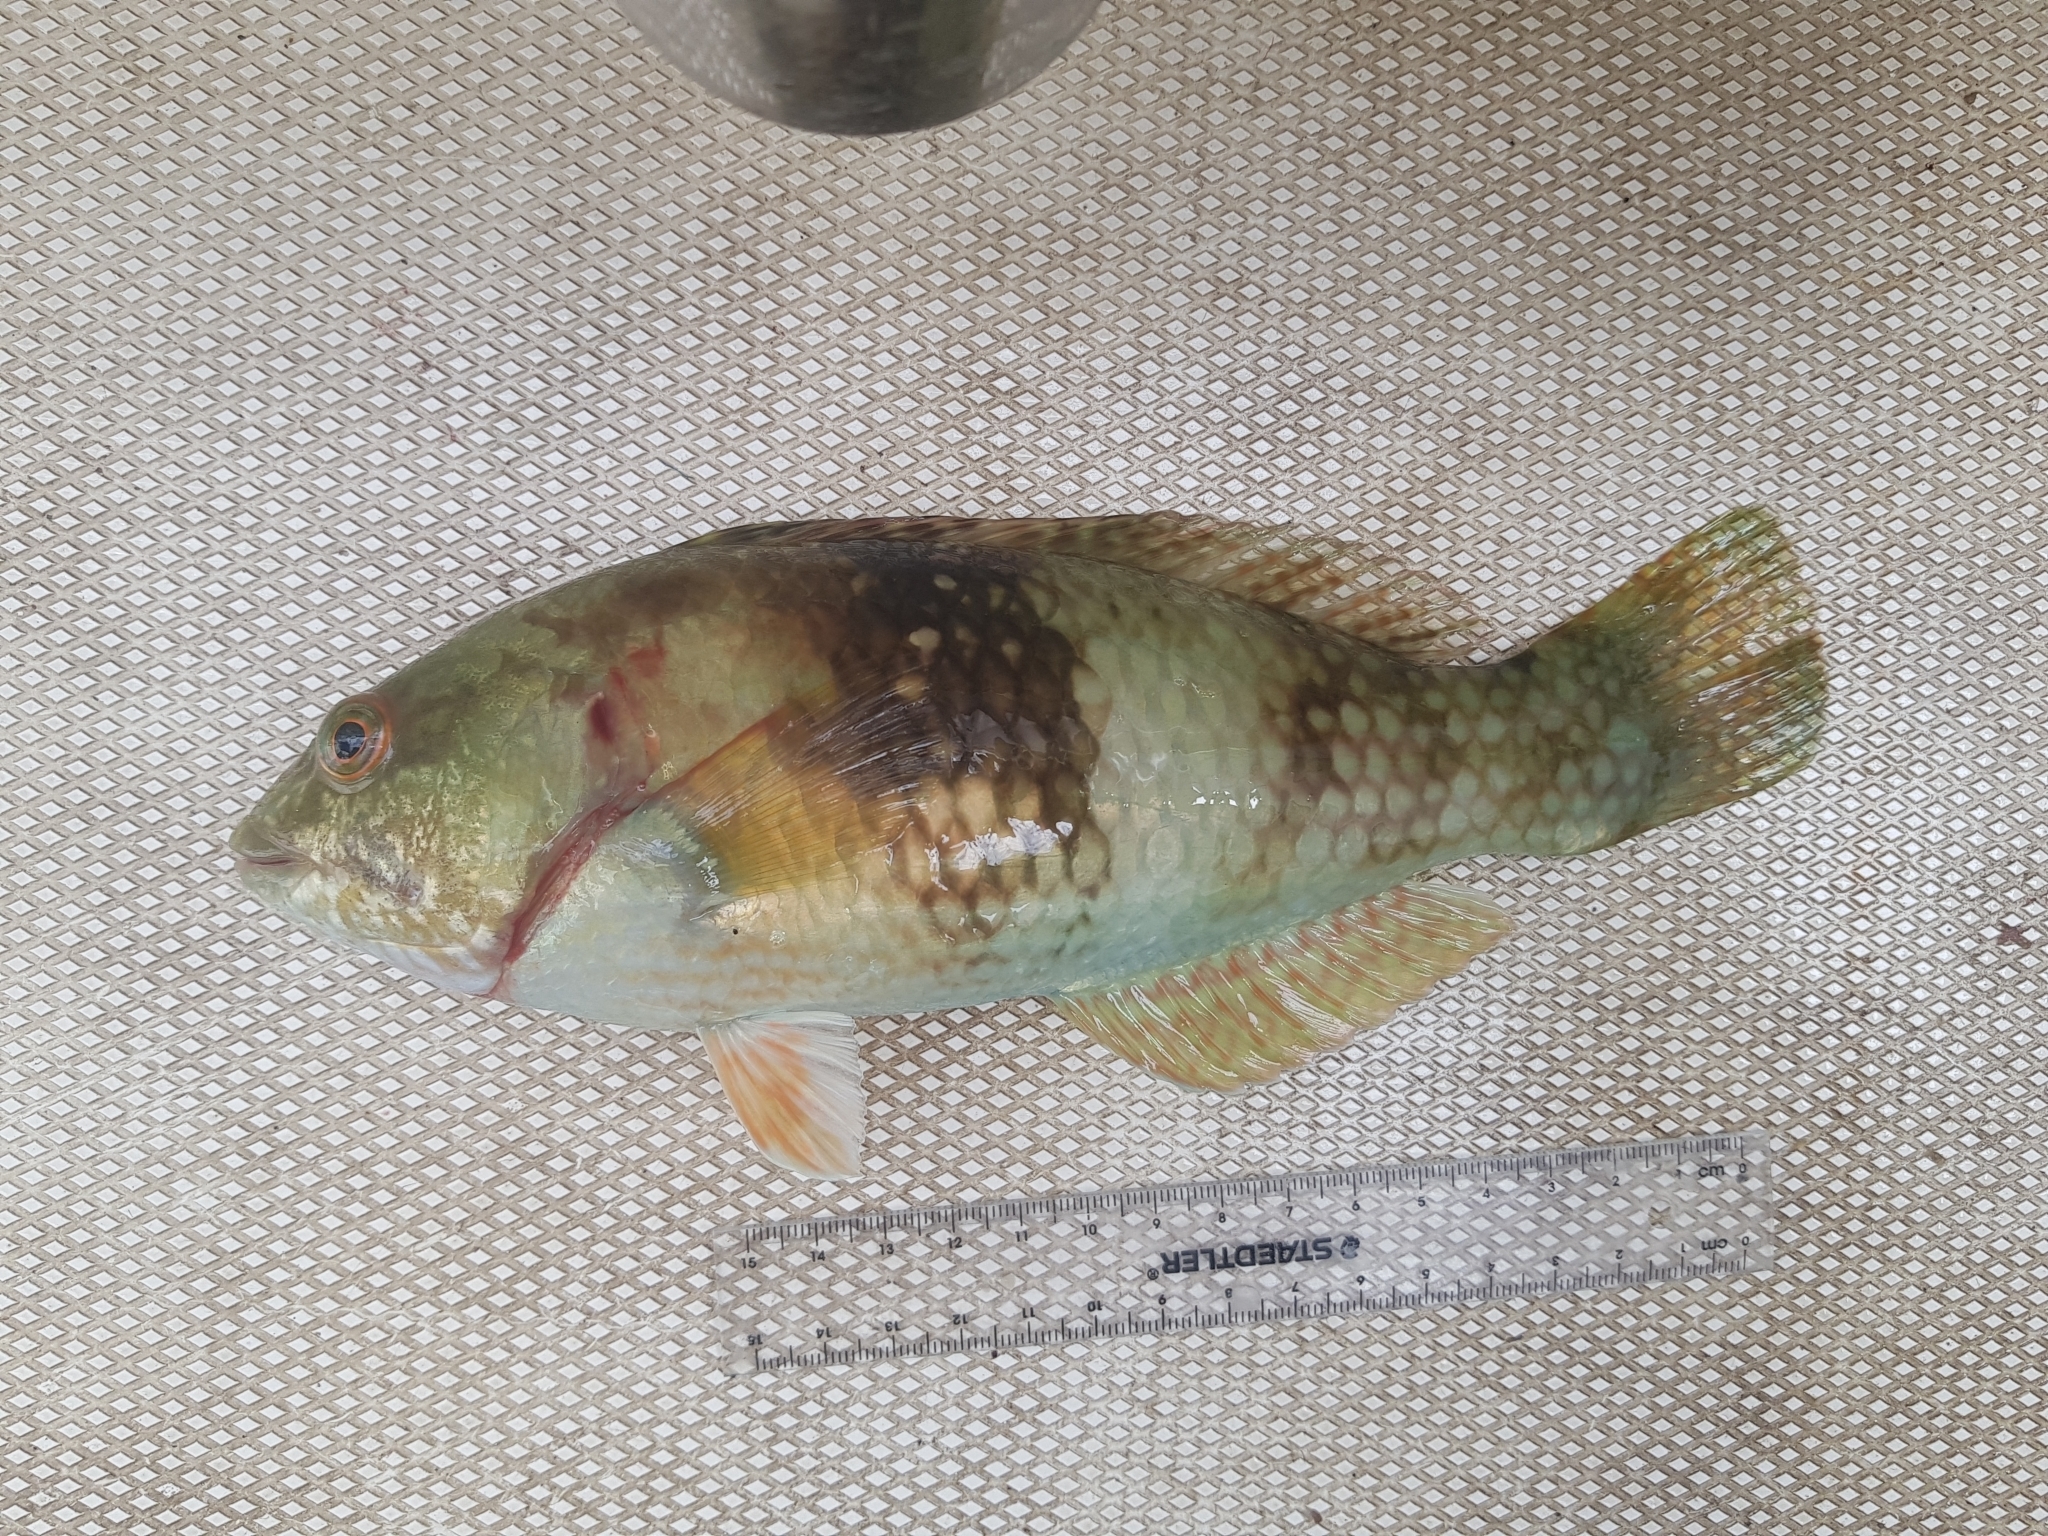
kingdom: Animalia
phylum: Chordata
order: Perciformes
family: Labridae
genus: Notolabrus
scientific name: Notolabrus tetricus
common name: Blue-throated parrotfish
